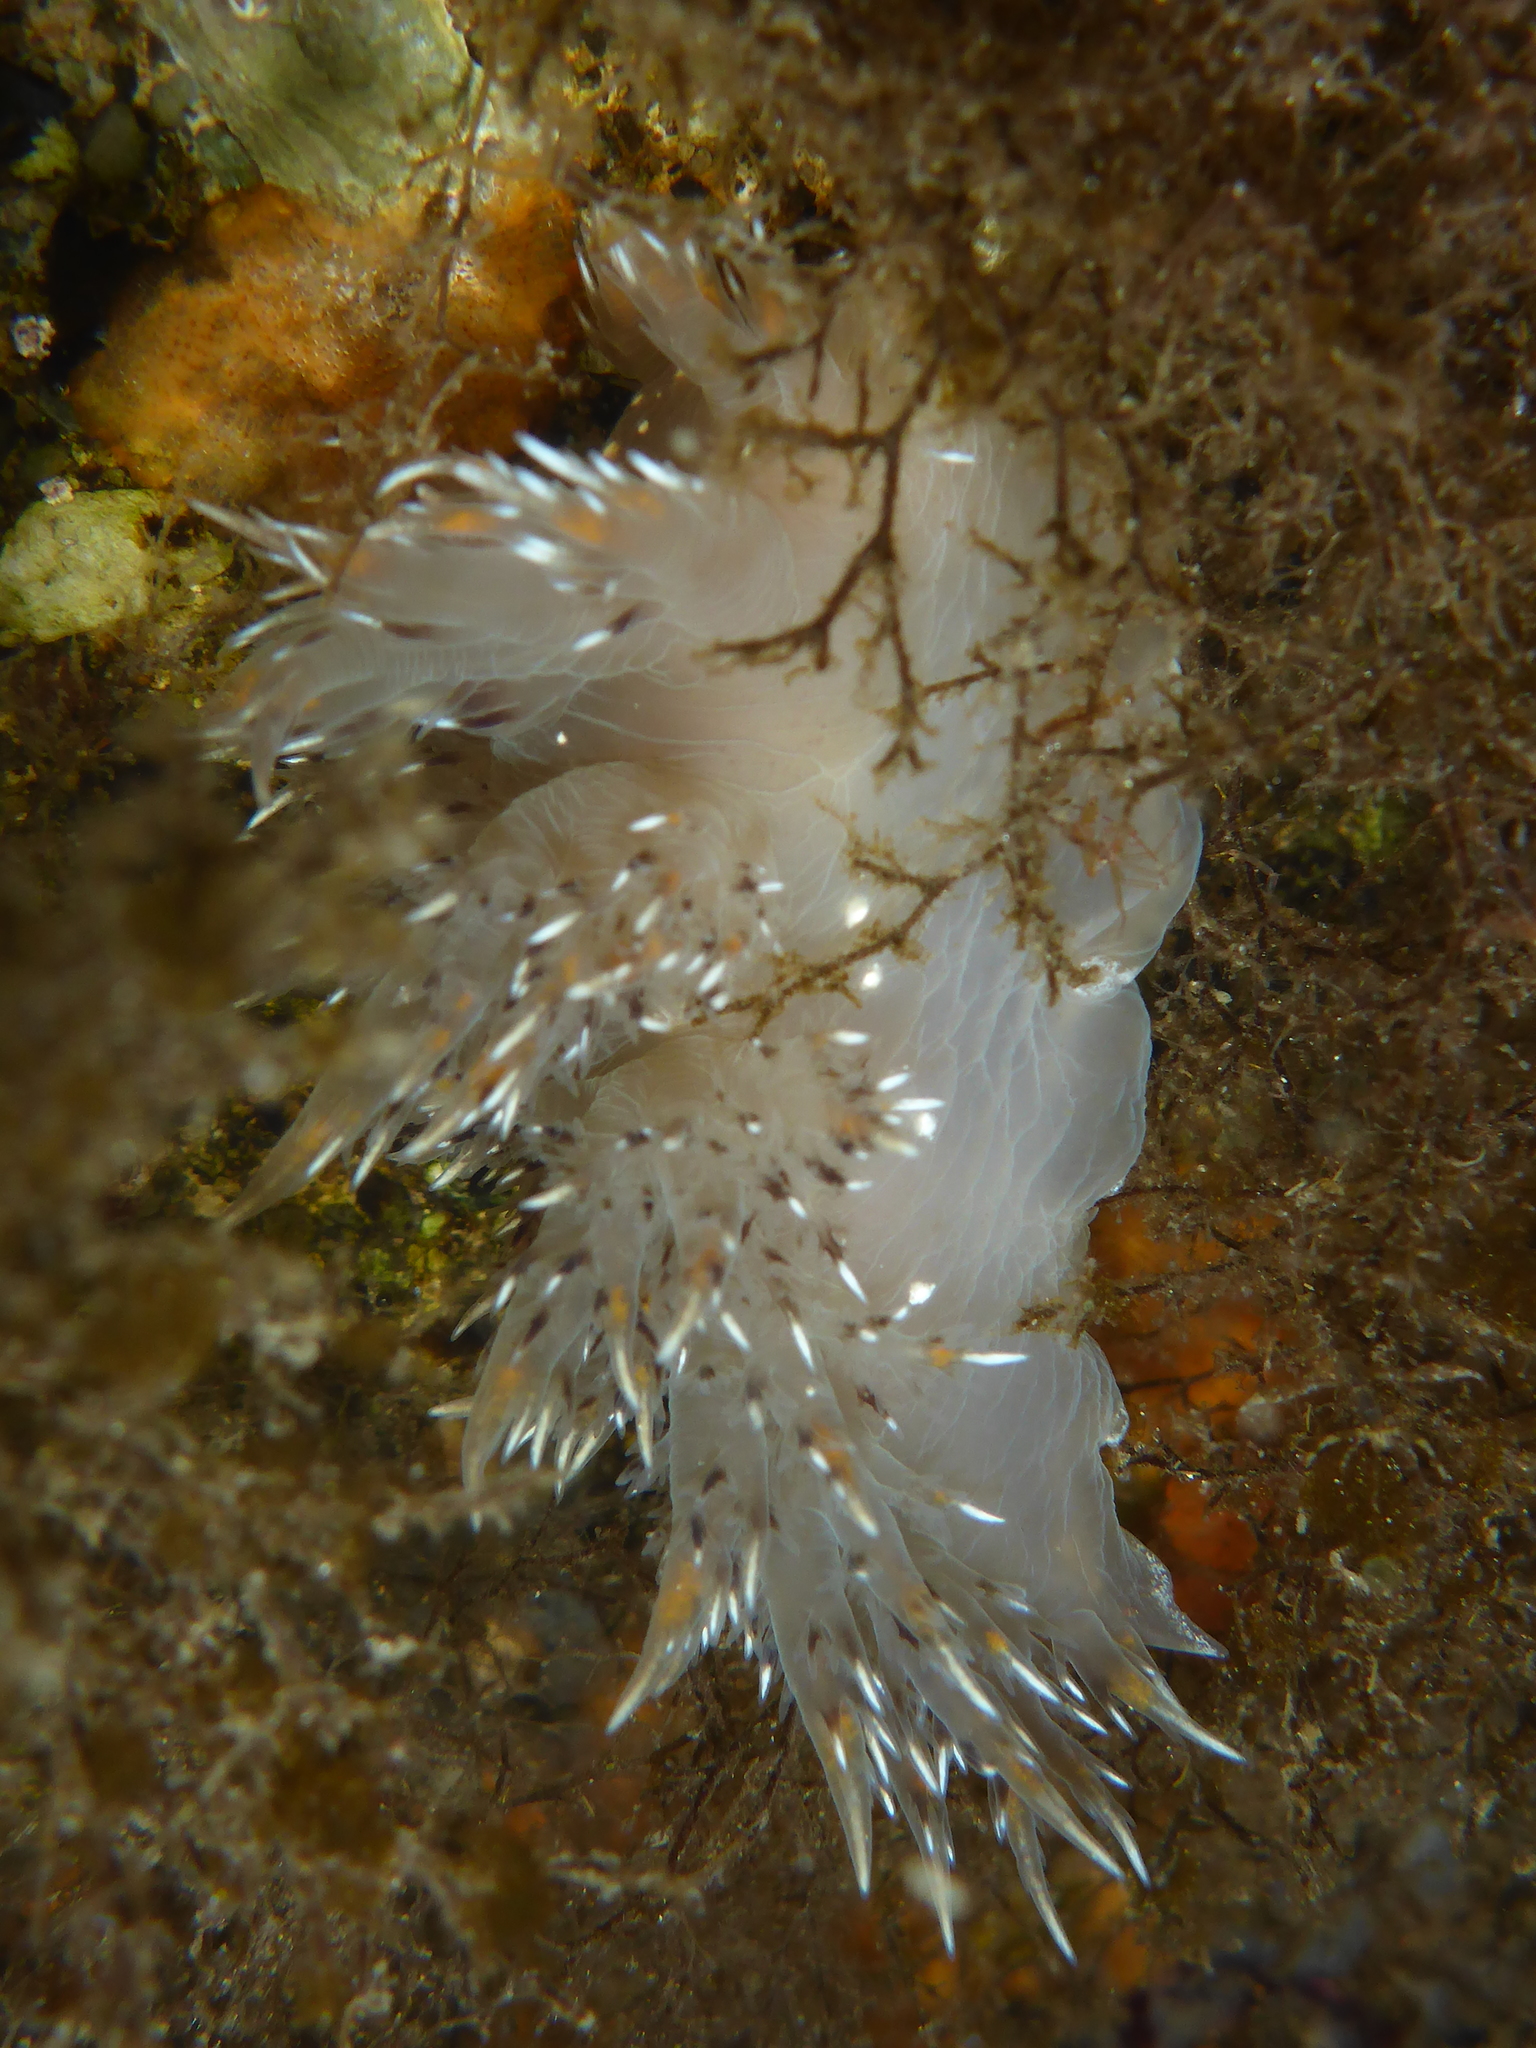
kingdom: Animalia
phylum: Mollusca
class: Gastropoda
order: Nudibranchia
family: Dendronotidae
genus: Dendronotus
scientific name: Dendronotus iris
